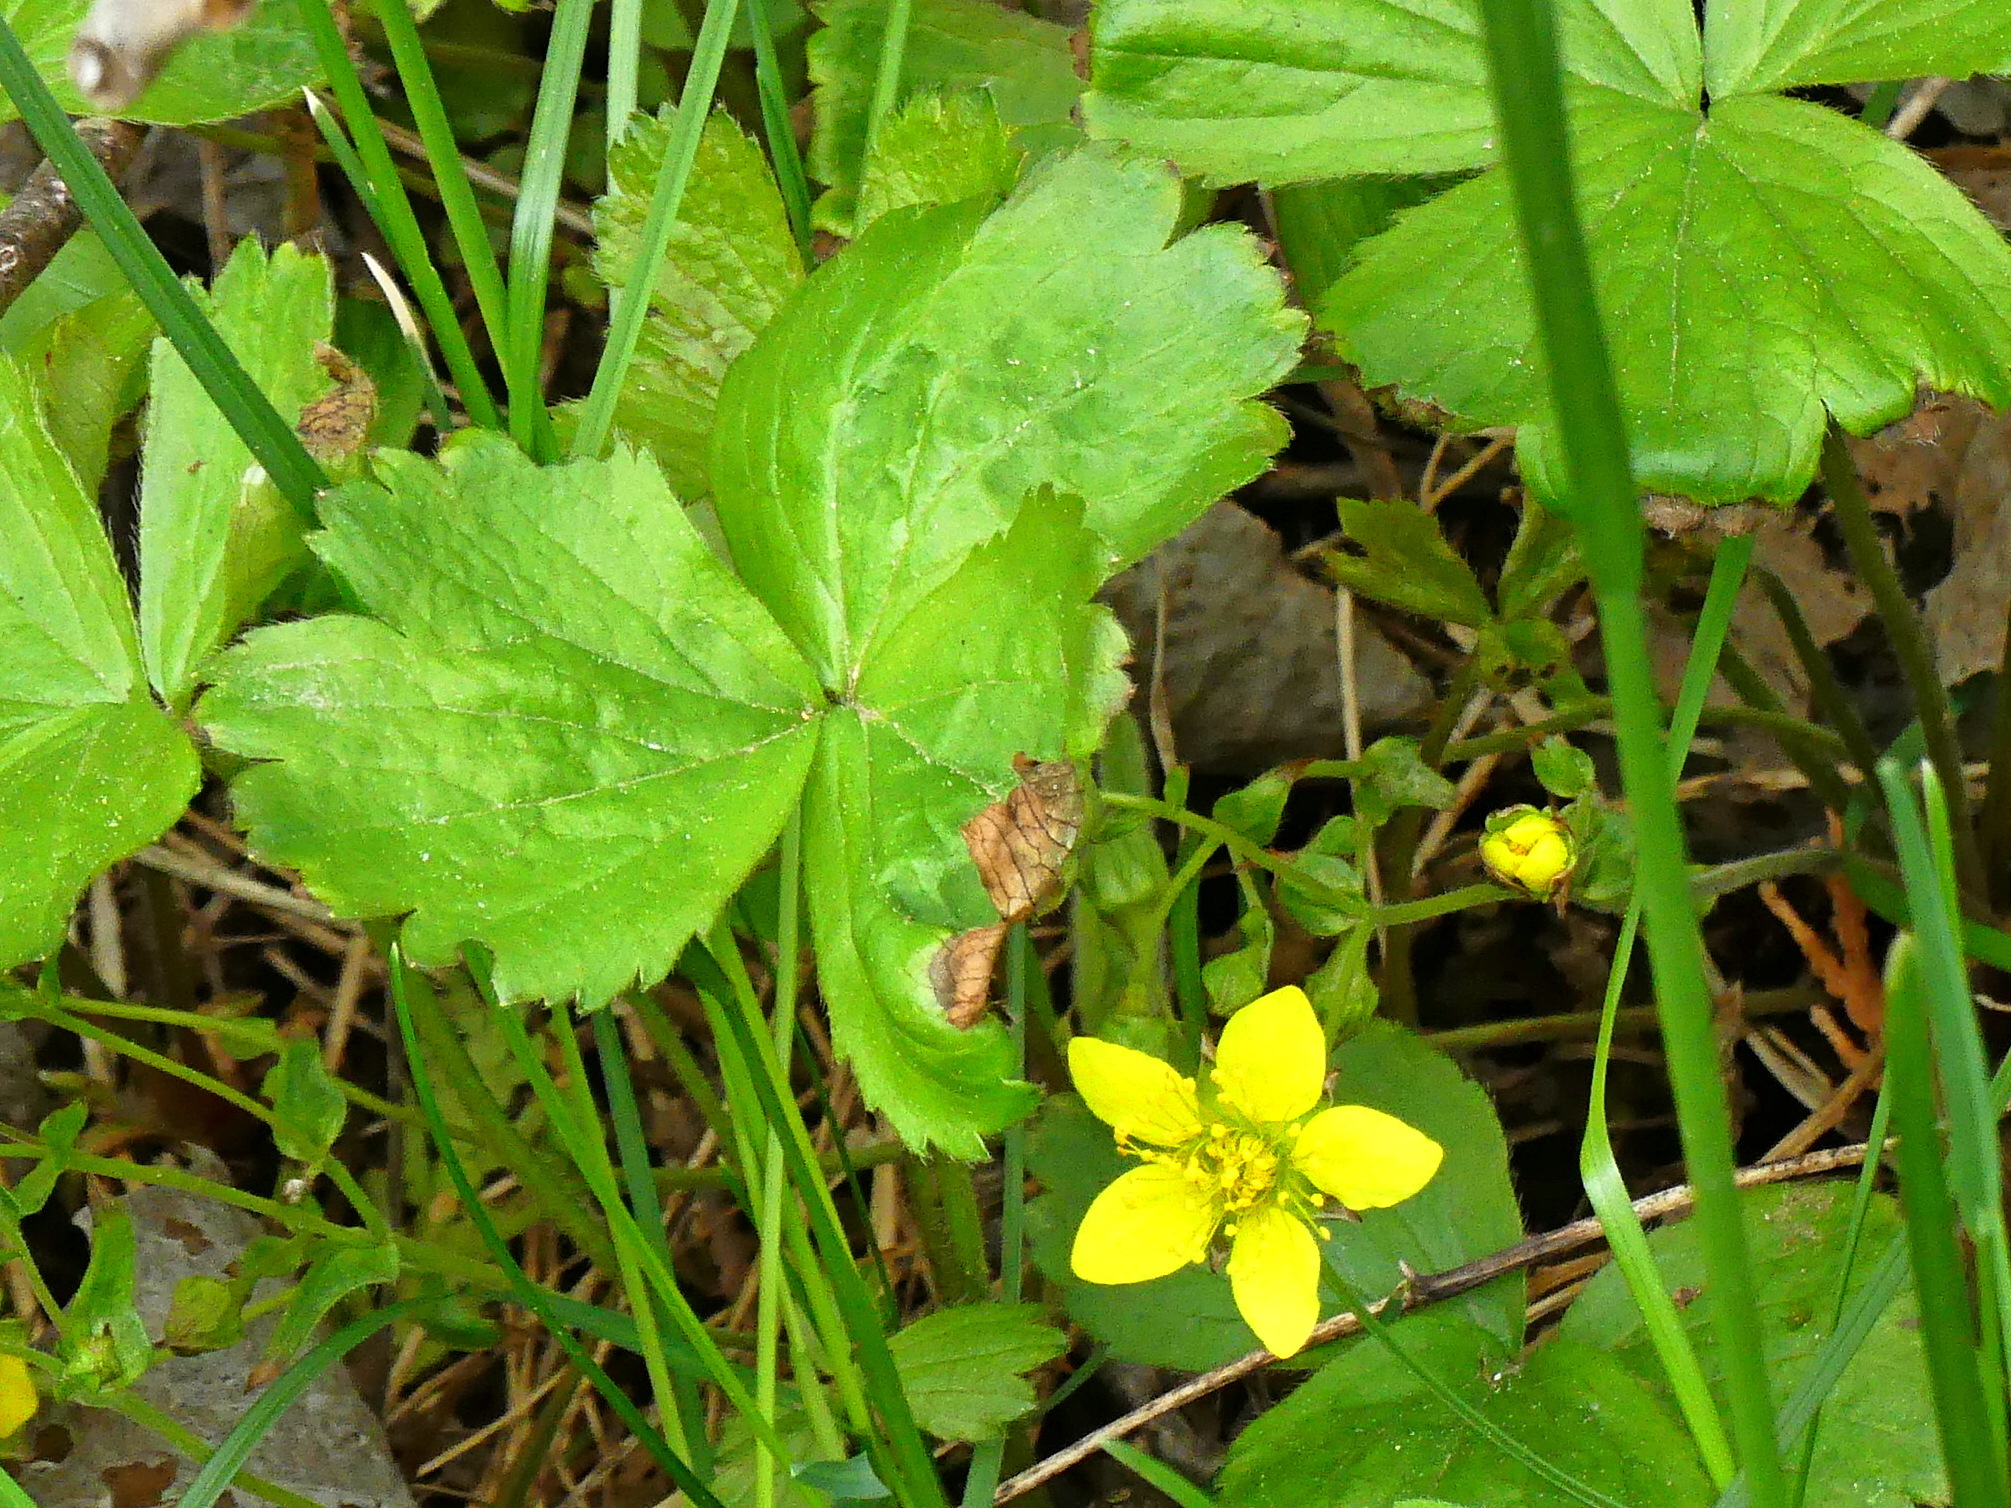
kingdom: Plantae
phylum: Tracheophyta
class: Magnoliopsida
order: Rosales
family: Rosaceae
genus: Geum
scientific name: Geum fragarioides
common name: Appalachian barren strawberry
